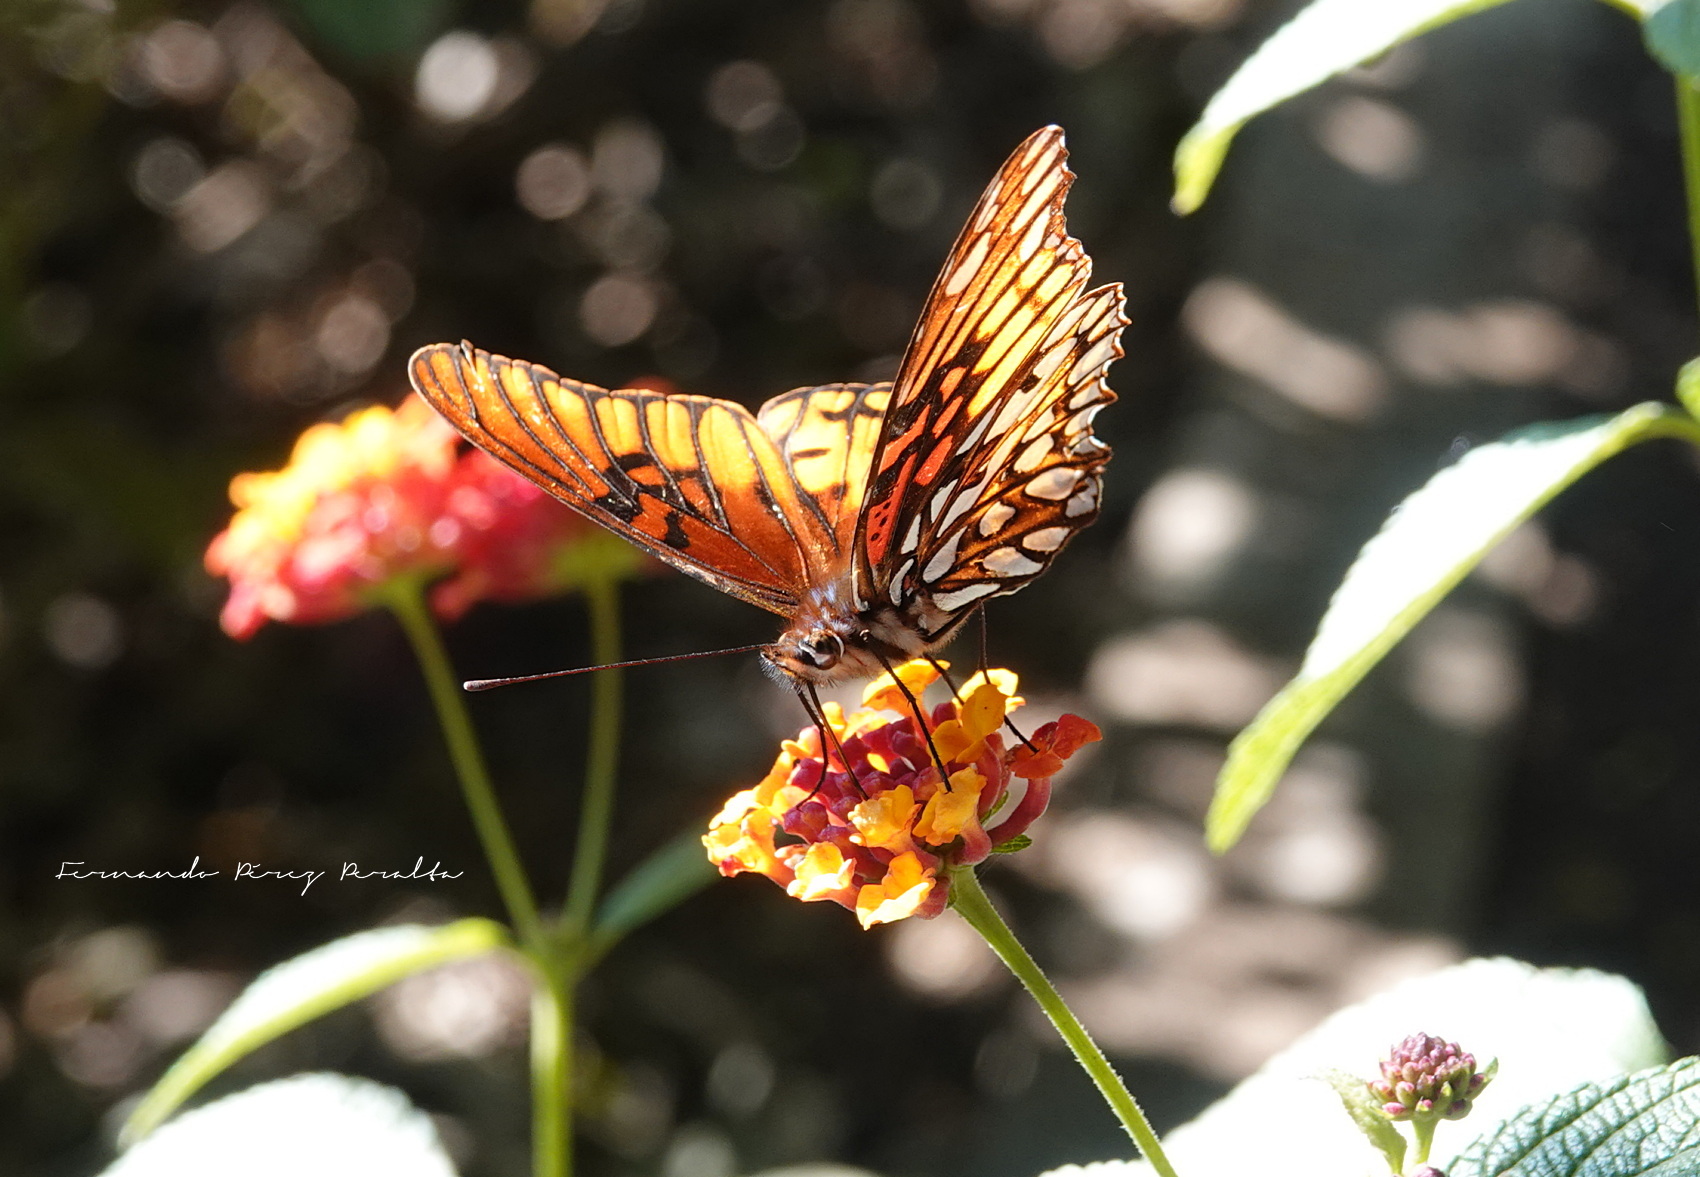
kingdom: Animalia
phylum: Arthropoda
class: Insecta
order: Lepidoptera
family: Nymphalidae
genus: Dione
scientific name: Dione moneta
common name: Mexican silverspot
